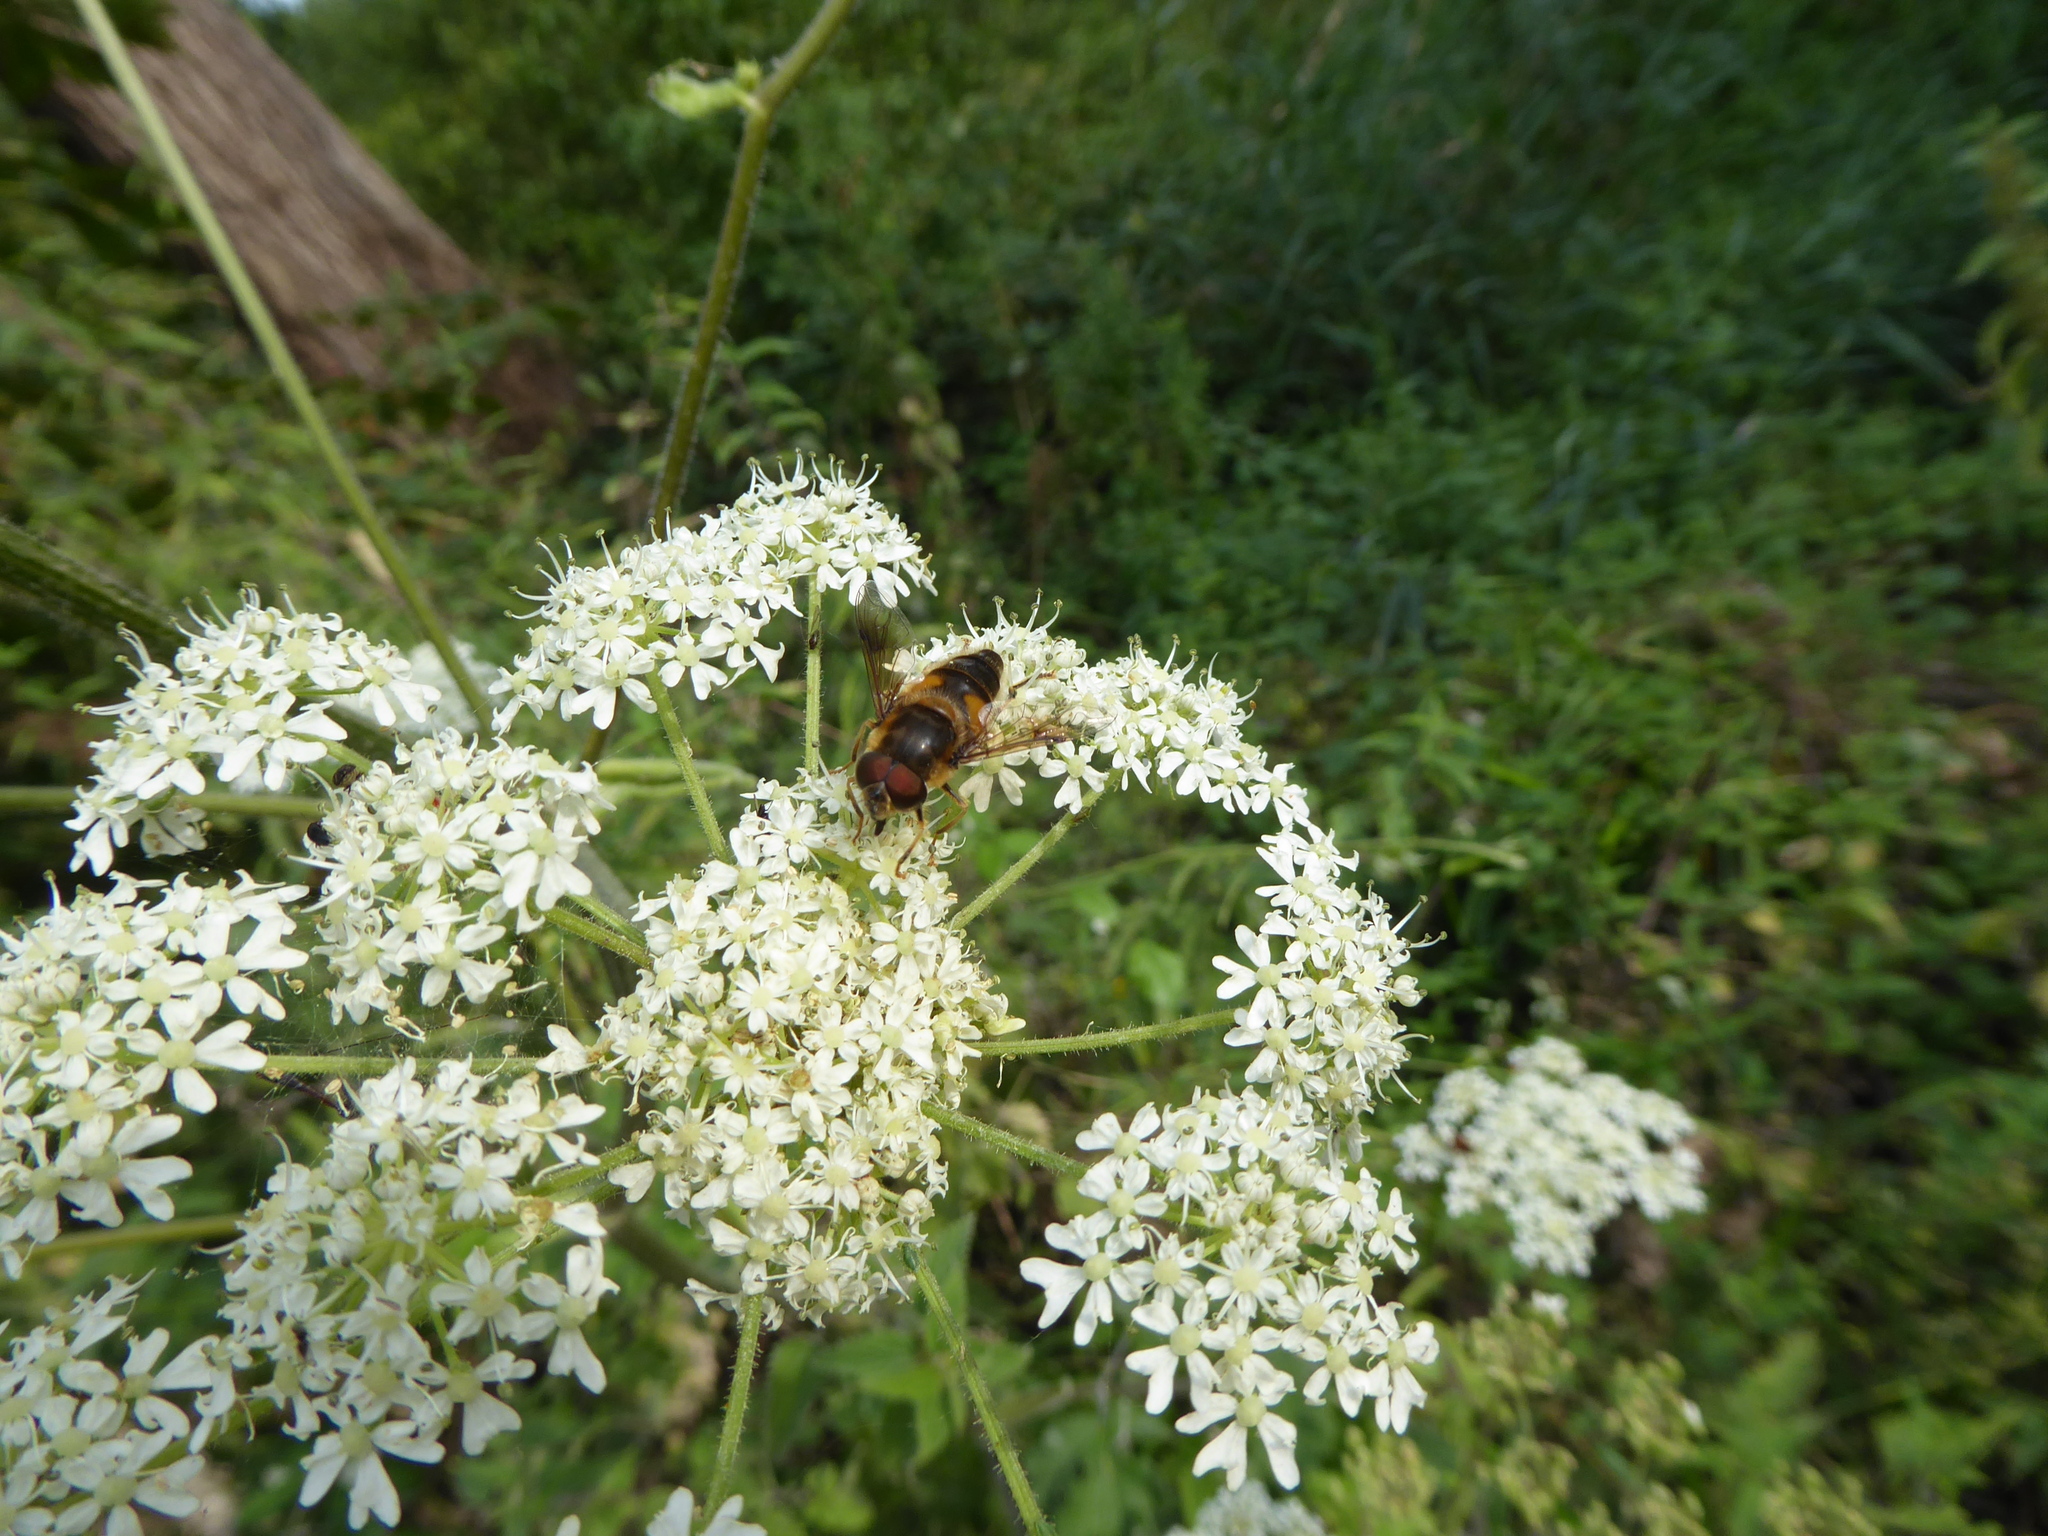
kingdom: Animalia
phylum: Arthropoda
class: Insecta
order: Diptera
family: Syrphidae
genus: Eristalis
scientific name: Eristalis pertinax
